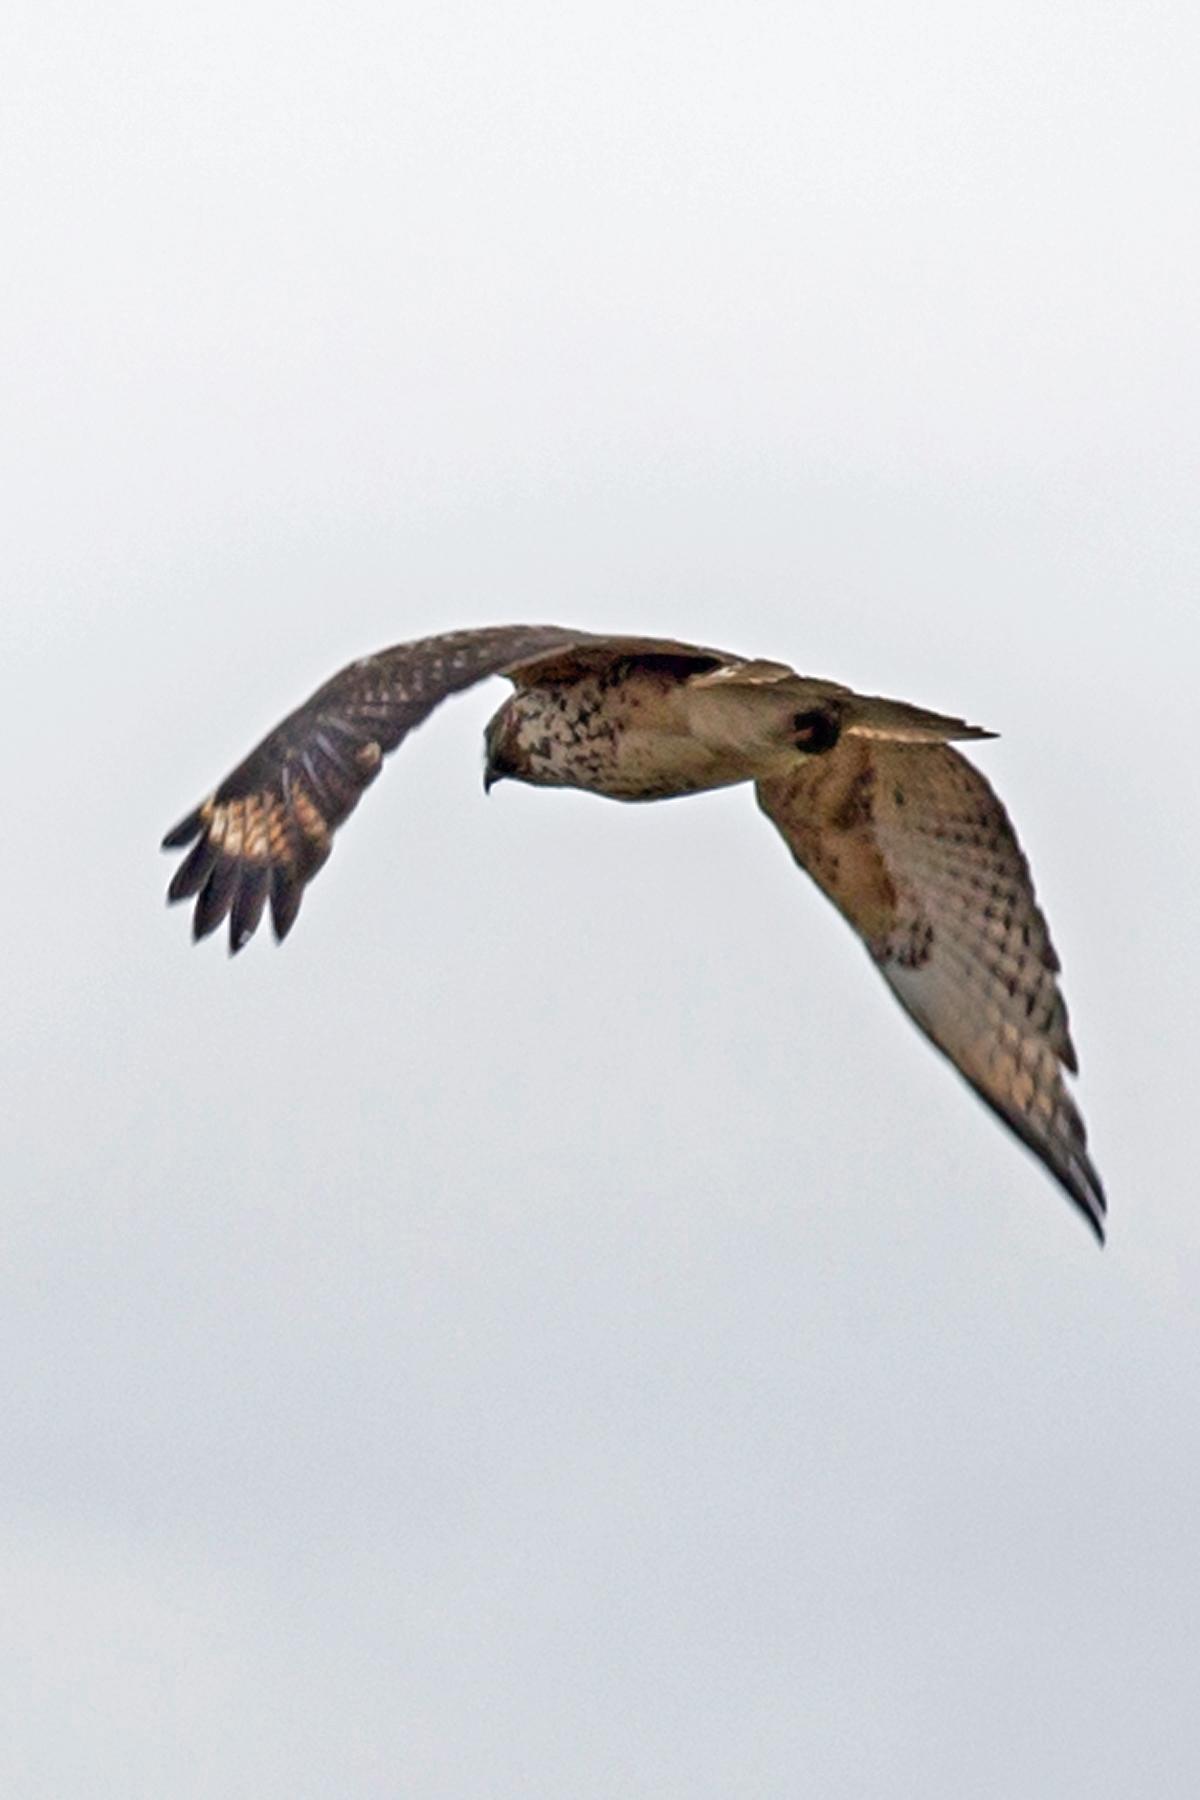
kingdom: Animalia
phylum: Chordata
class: Aves
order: Accipitriformes
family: Accipitridae
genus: Buteo
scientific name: Buteo lineatus
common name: Red-shouldered hawk
